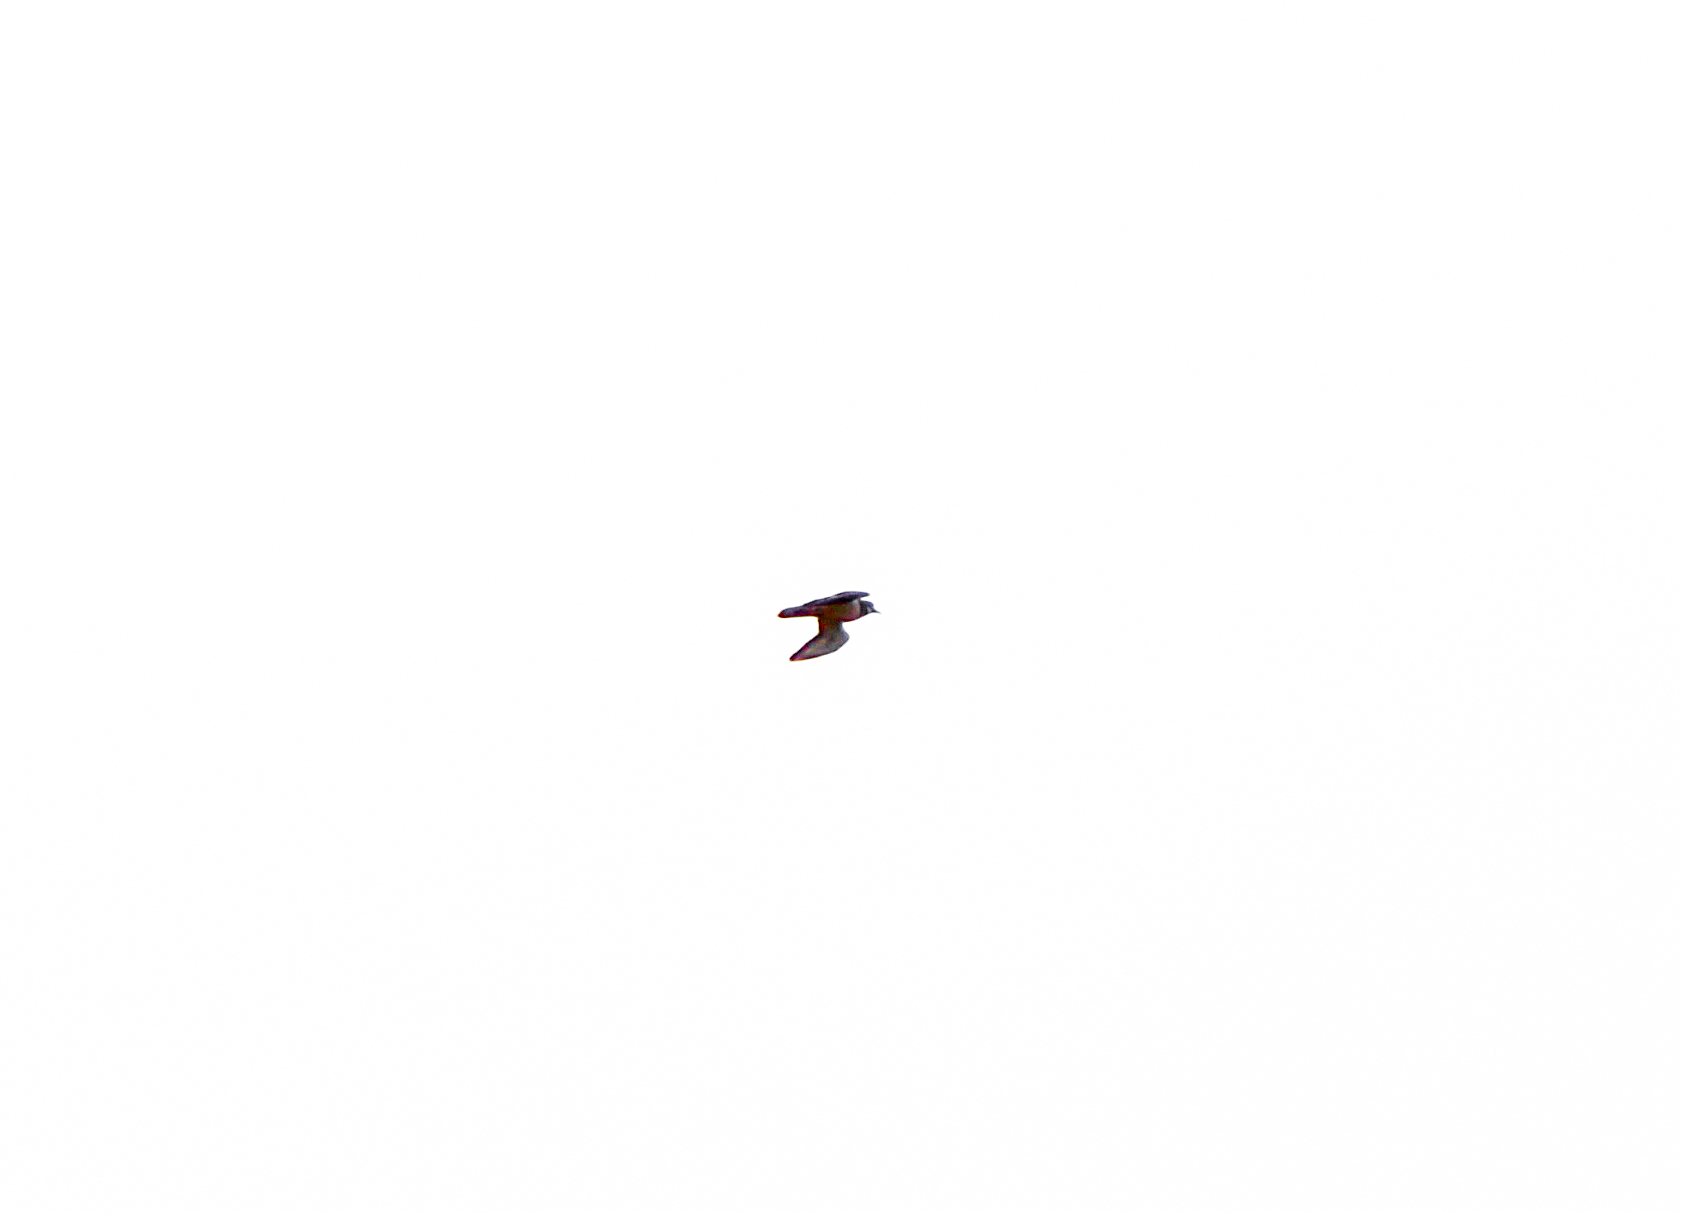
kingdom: Animalia
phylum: Chordata
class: Aves
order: Charadriiformes
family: Charadriidae
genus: Charadrius
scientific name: Charadrius vociferus
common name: Killdeer
